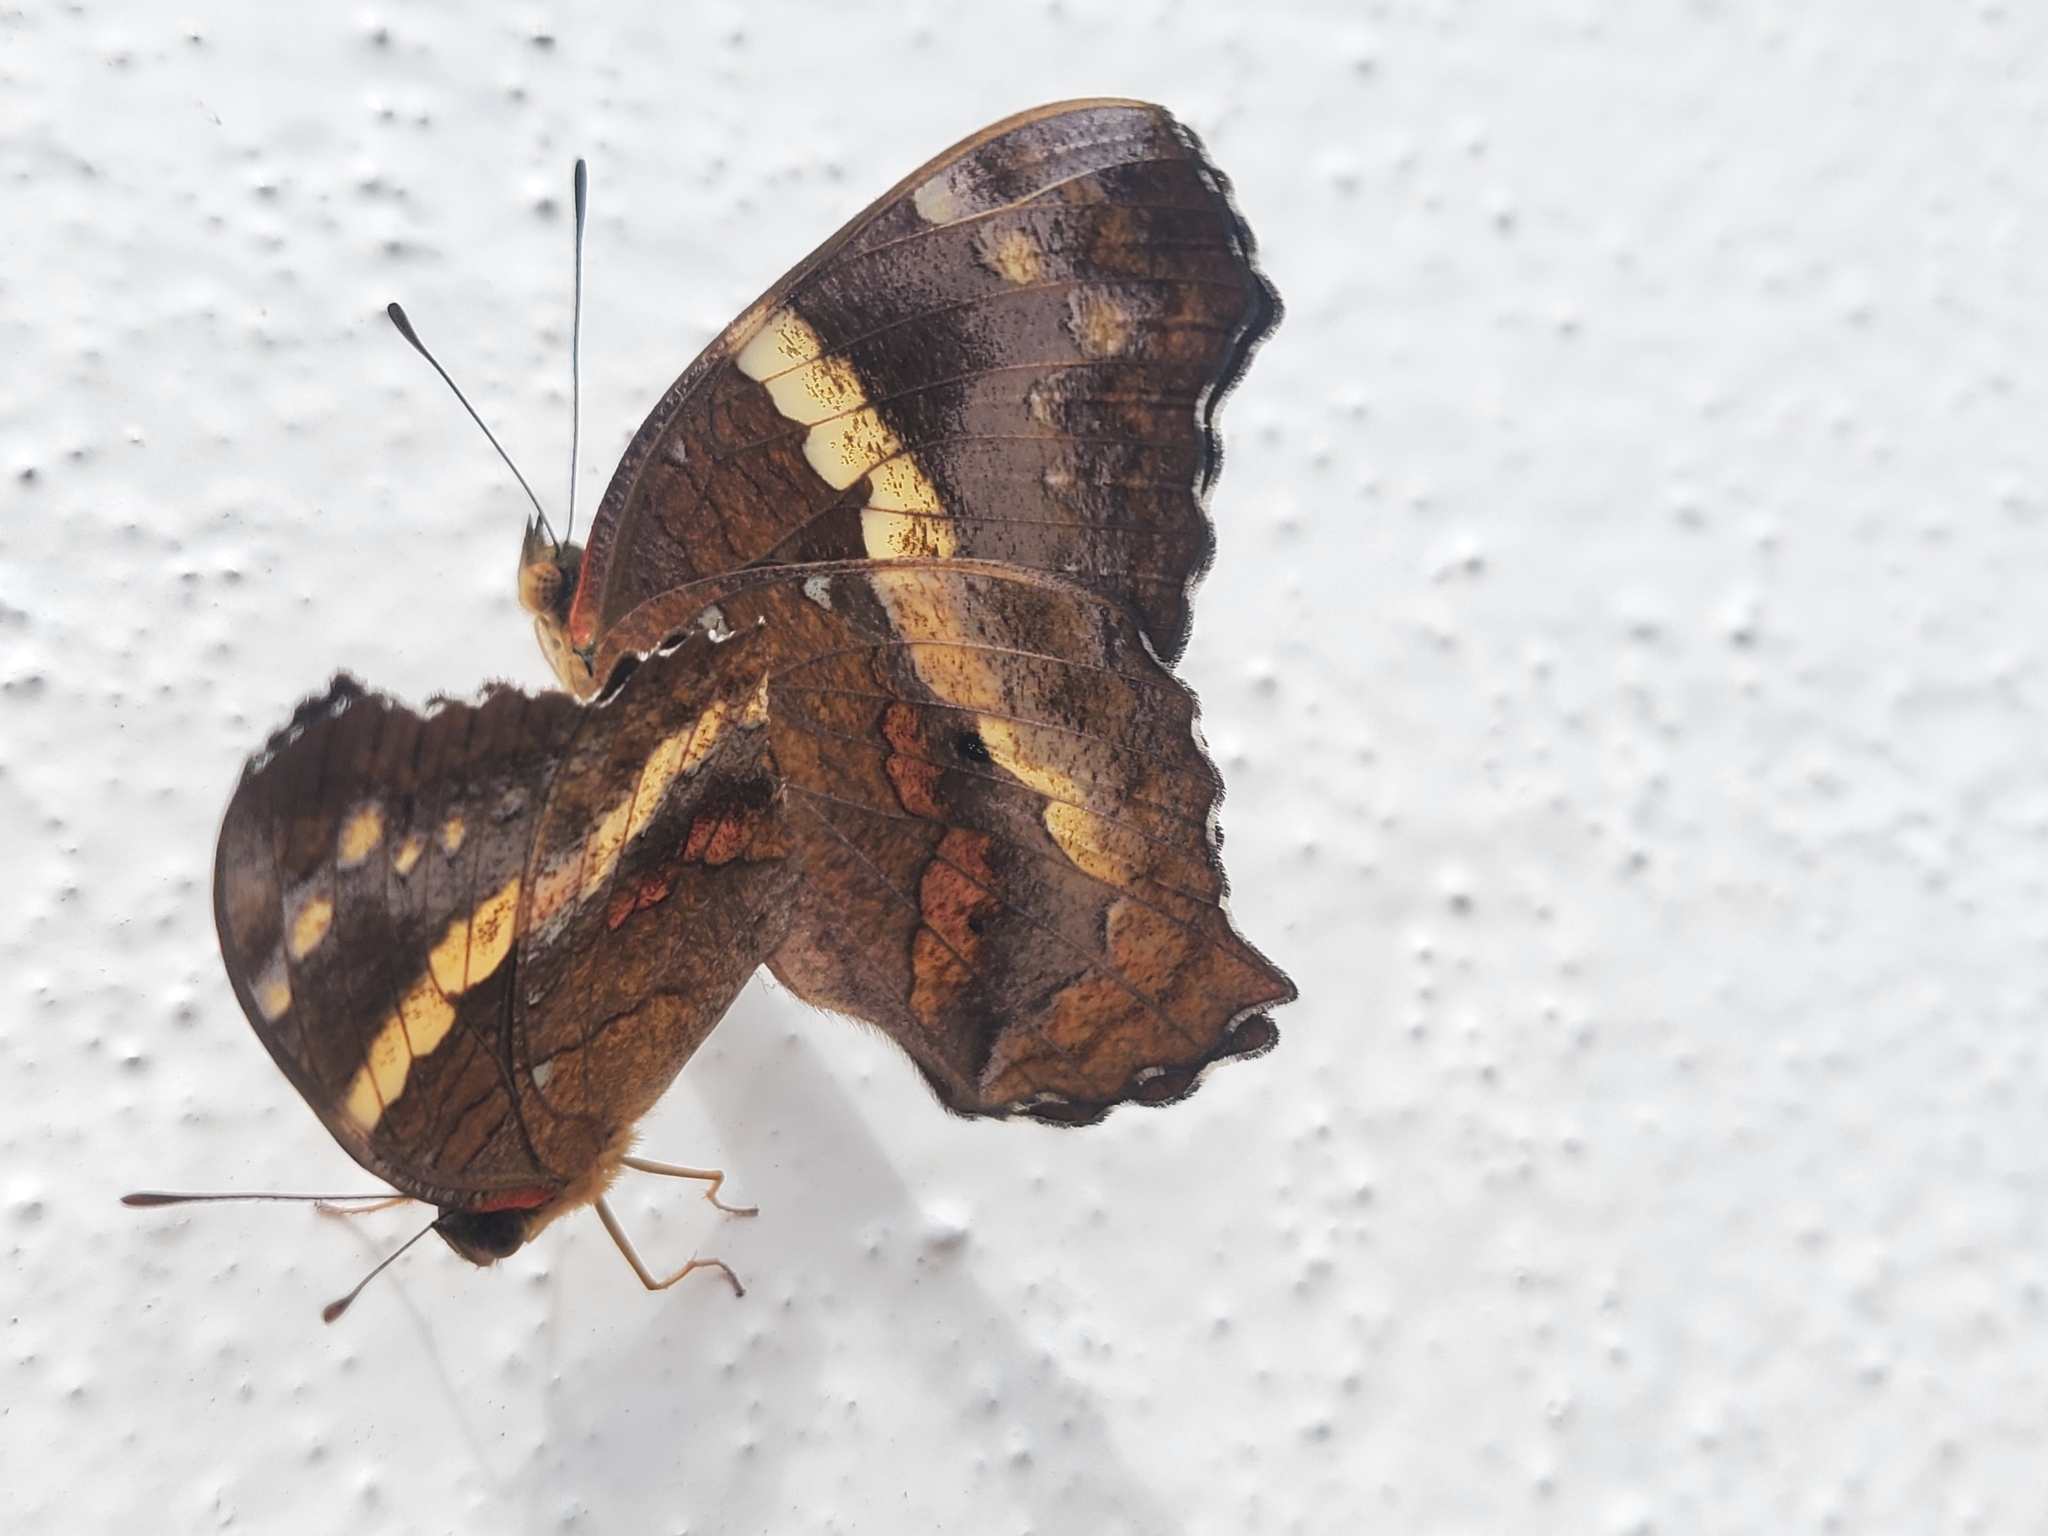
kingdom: Animalia
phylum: Arthropoda
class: Insecta
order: Lepidoptera
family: Nymphalidae
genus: Anartia
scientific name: Anartia fatima
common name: Banded peacock
